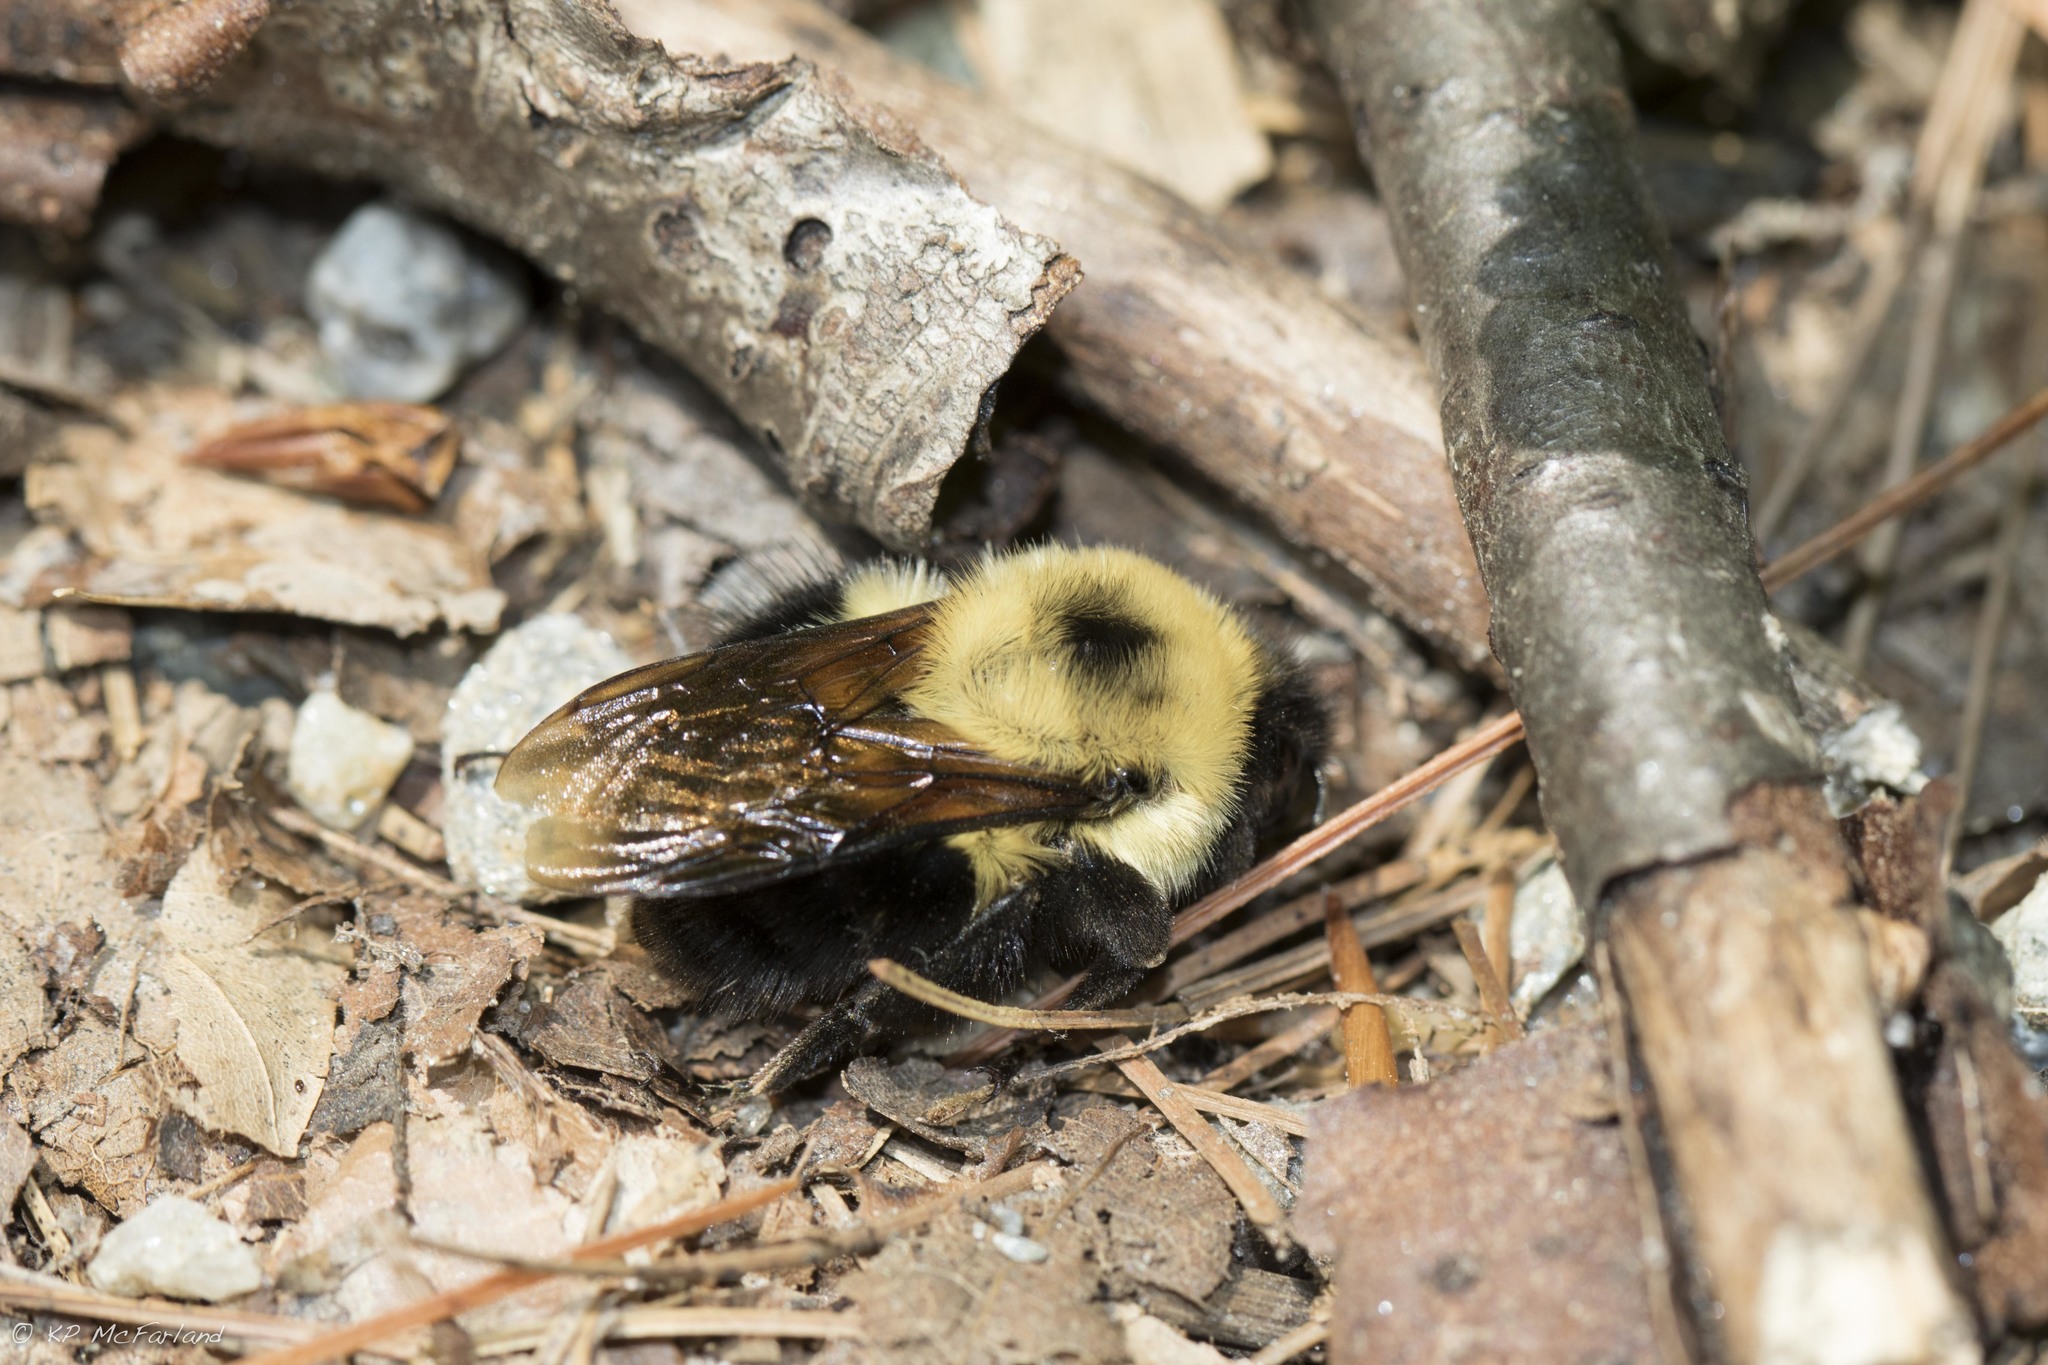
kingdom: Animalia
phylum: Arthropoda
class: Insecta
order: Hymenoptera
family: Apidae
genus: Bombus
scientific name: Bombus bimaculatus
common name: Two-spotted bumble bee
